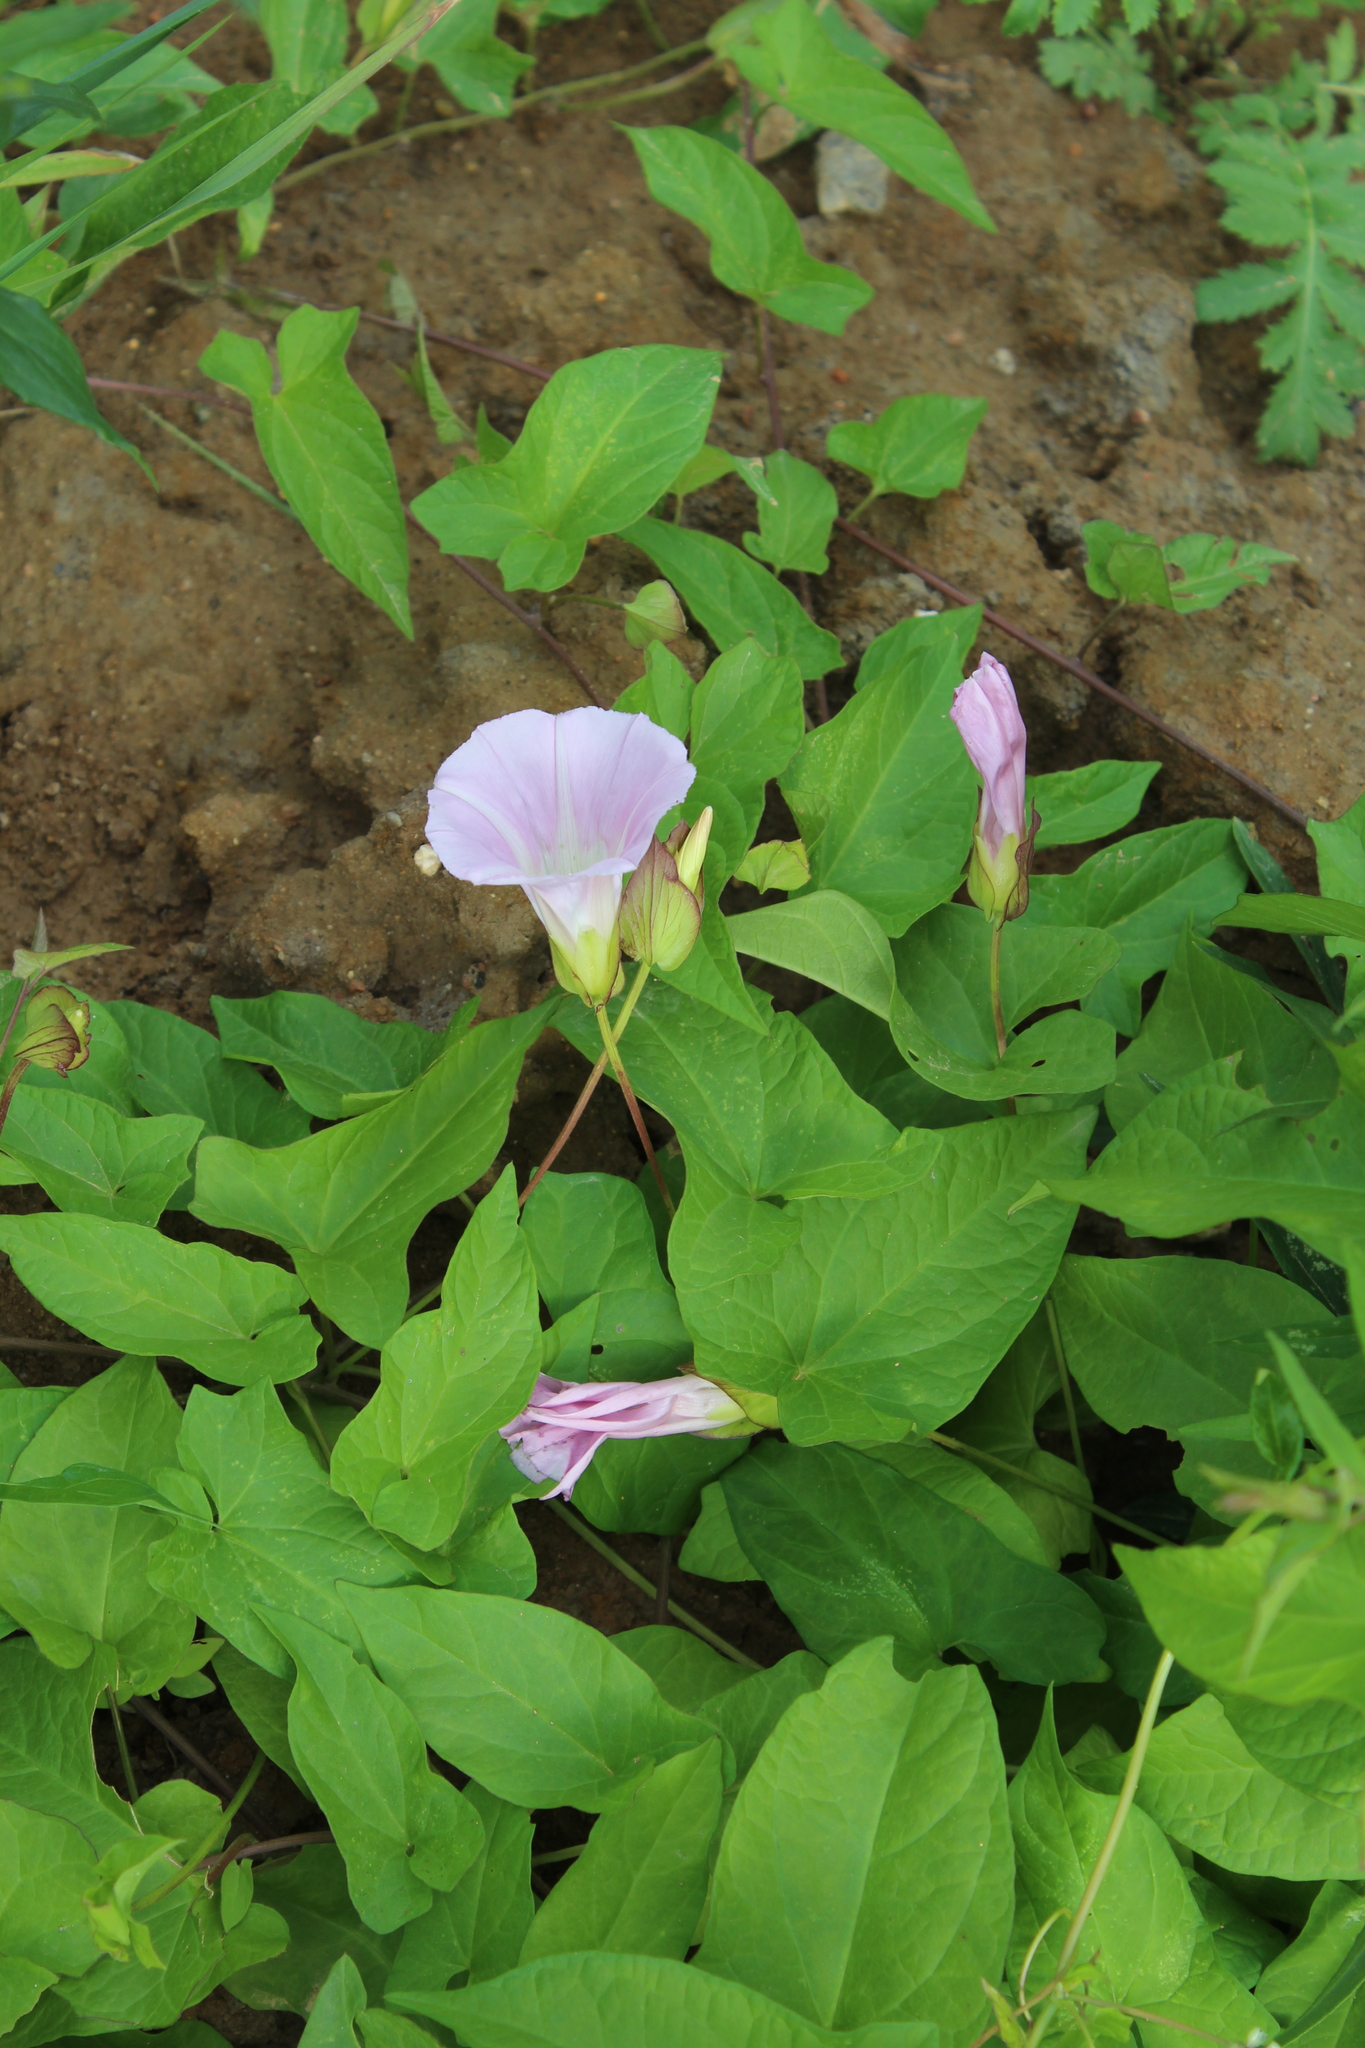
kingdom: Plantae
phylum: Tracheophyta
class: Magnoliopsida
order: Solanales
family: Convolvulaceae
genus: Calystegia
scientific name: Calystegia sepium
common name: Hedge bindweed
